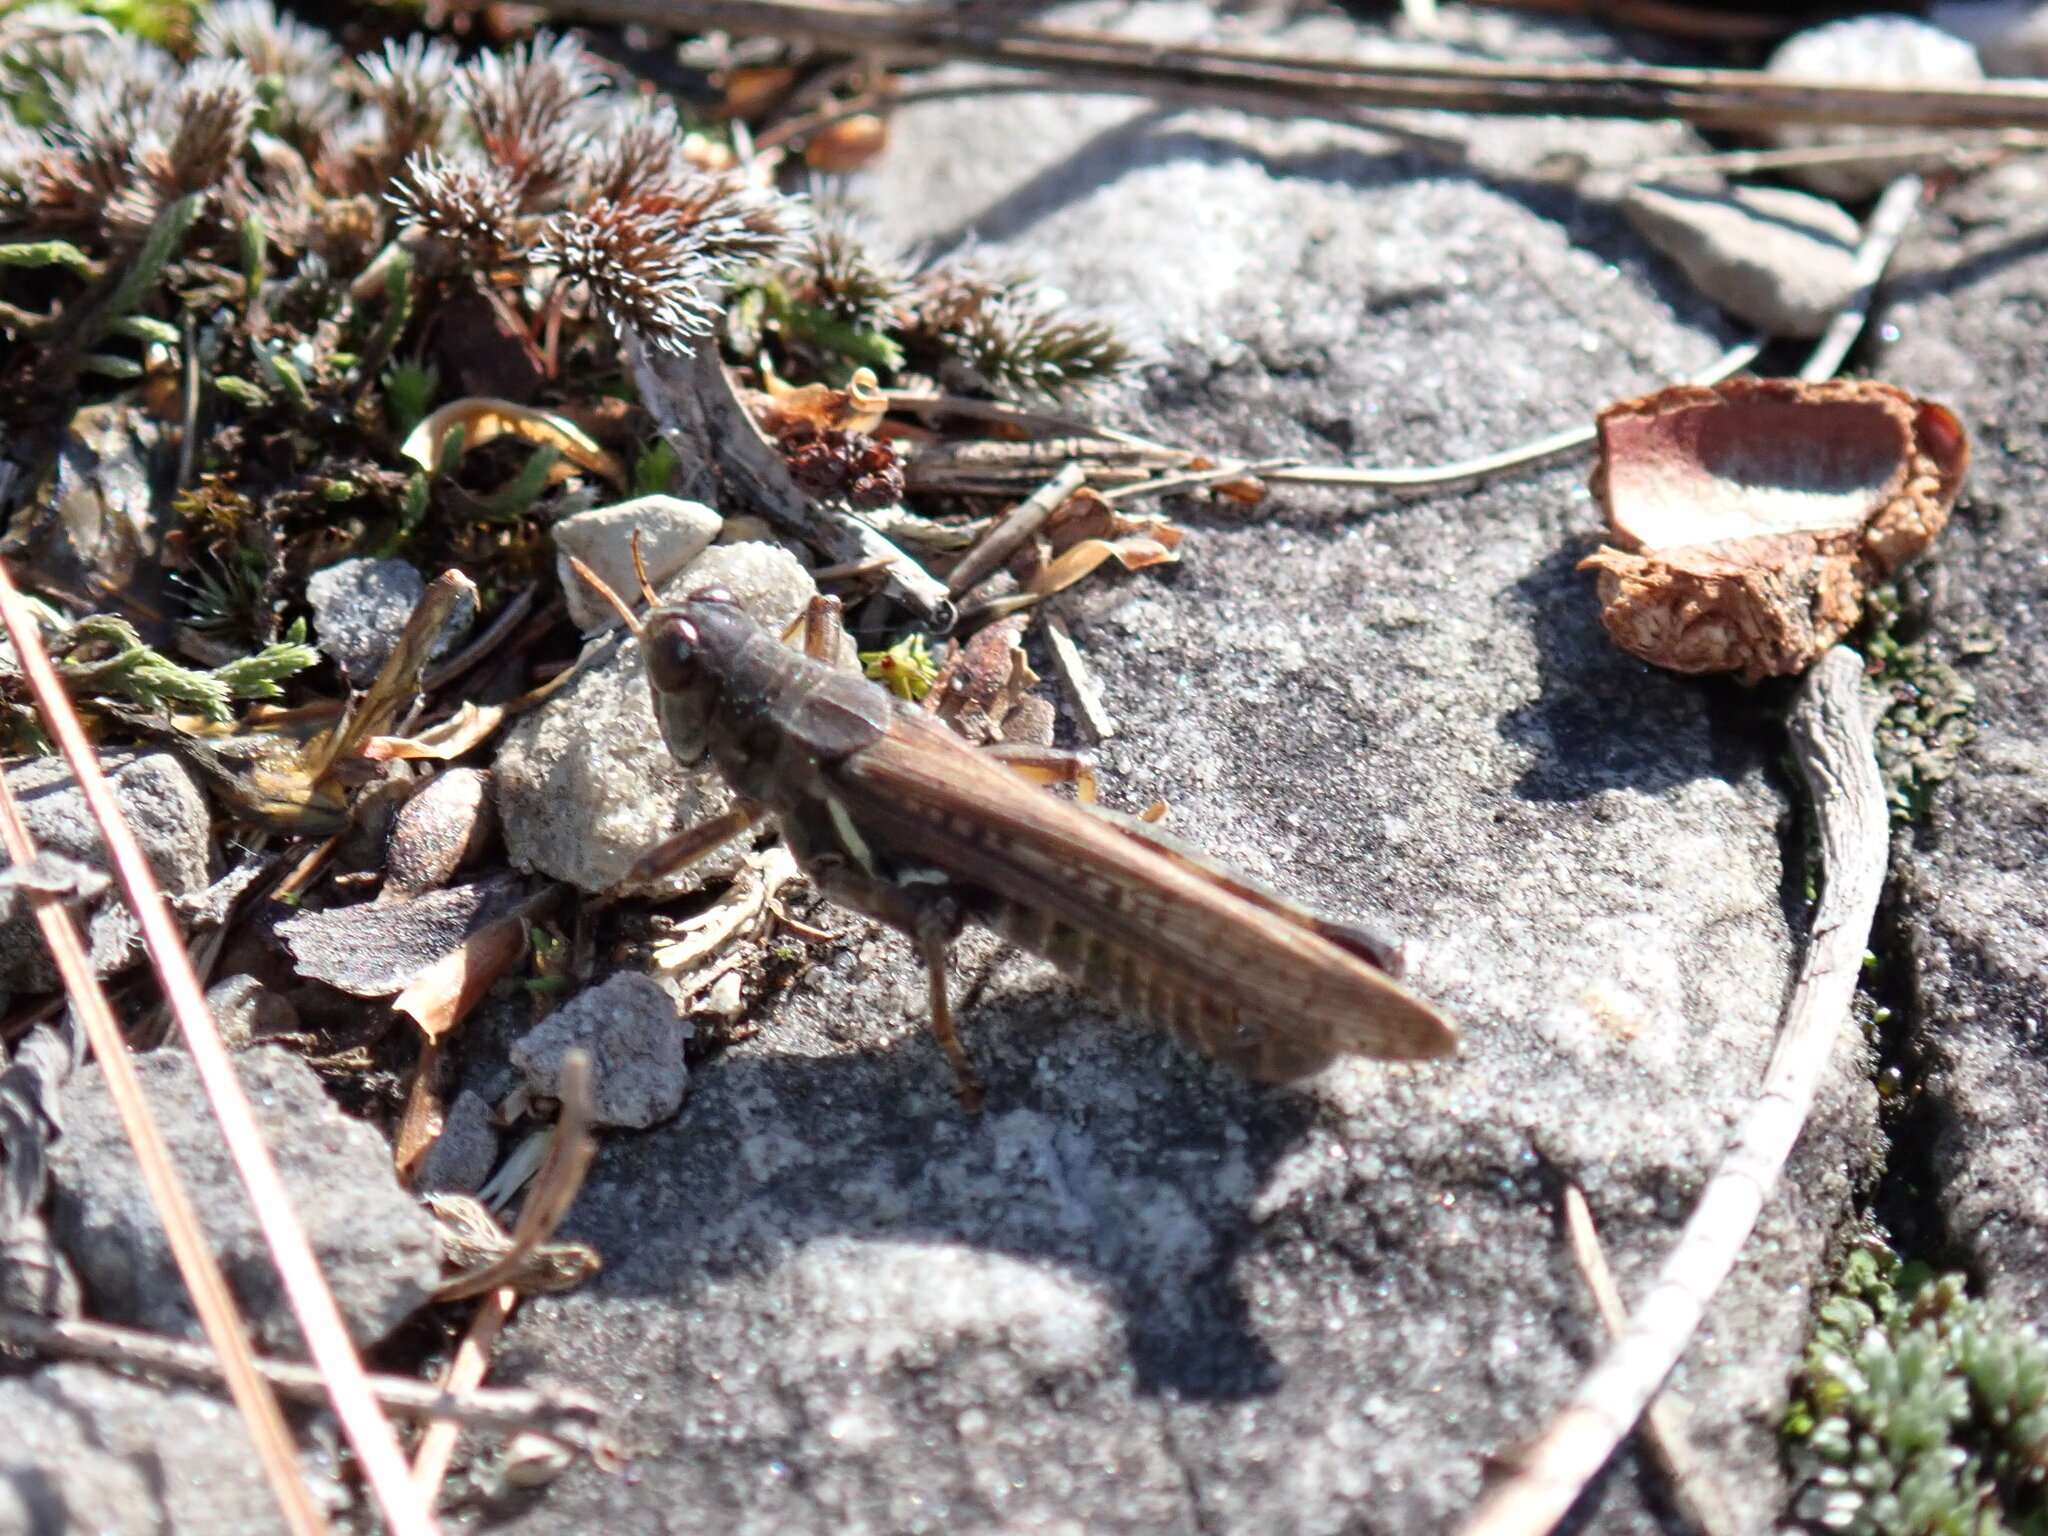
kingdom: Animalia
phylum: Arthropoda
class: Insecta
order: Orthoptera
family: Acrididae
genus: Melanoplus
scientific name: Melanoplus sanguinipes
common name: Migratory grasshopper
